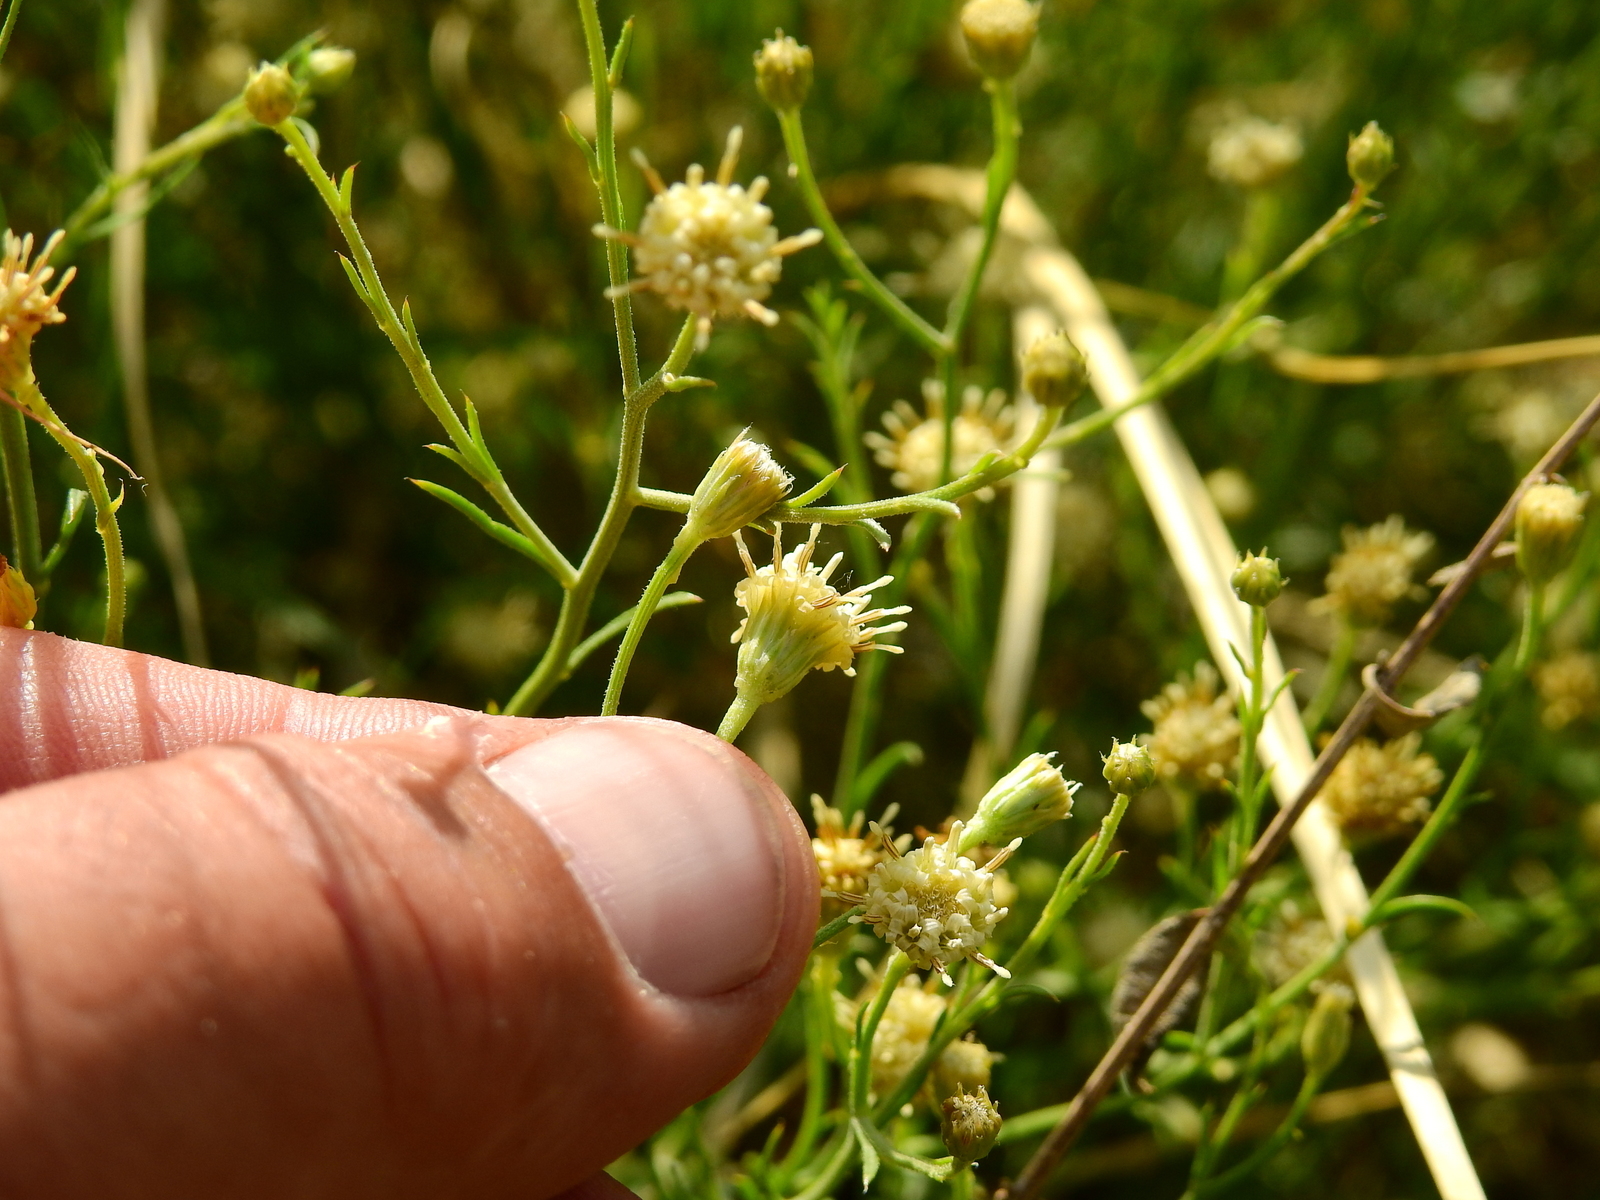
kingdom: Plantae
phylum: Tracheophyta
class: Magnoliopsida
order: Asterales
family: Asteraceae
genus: Baccharis
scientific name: Baccharis darwinii
